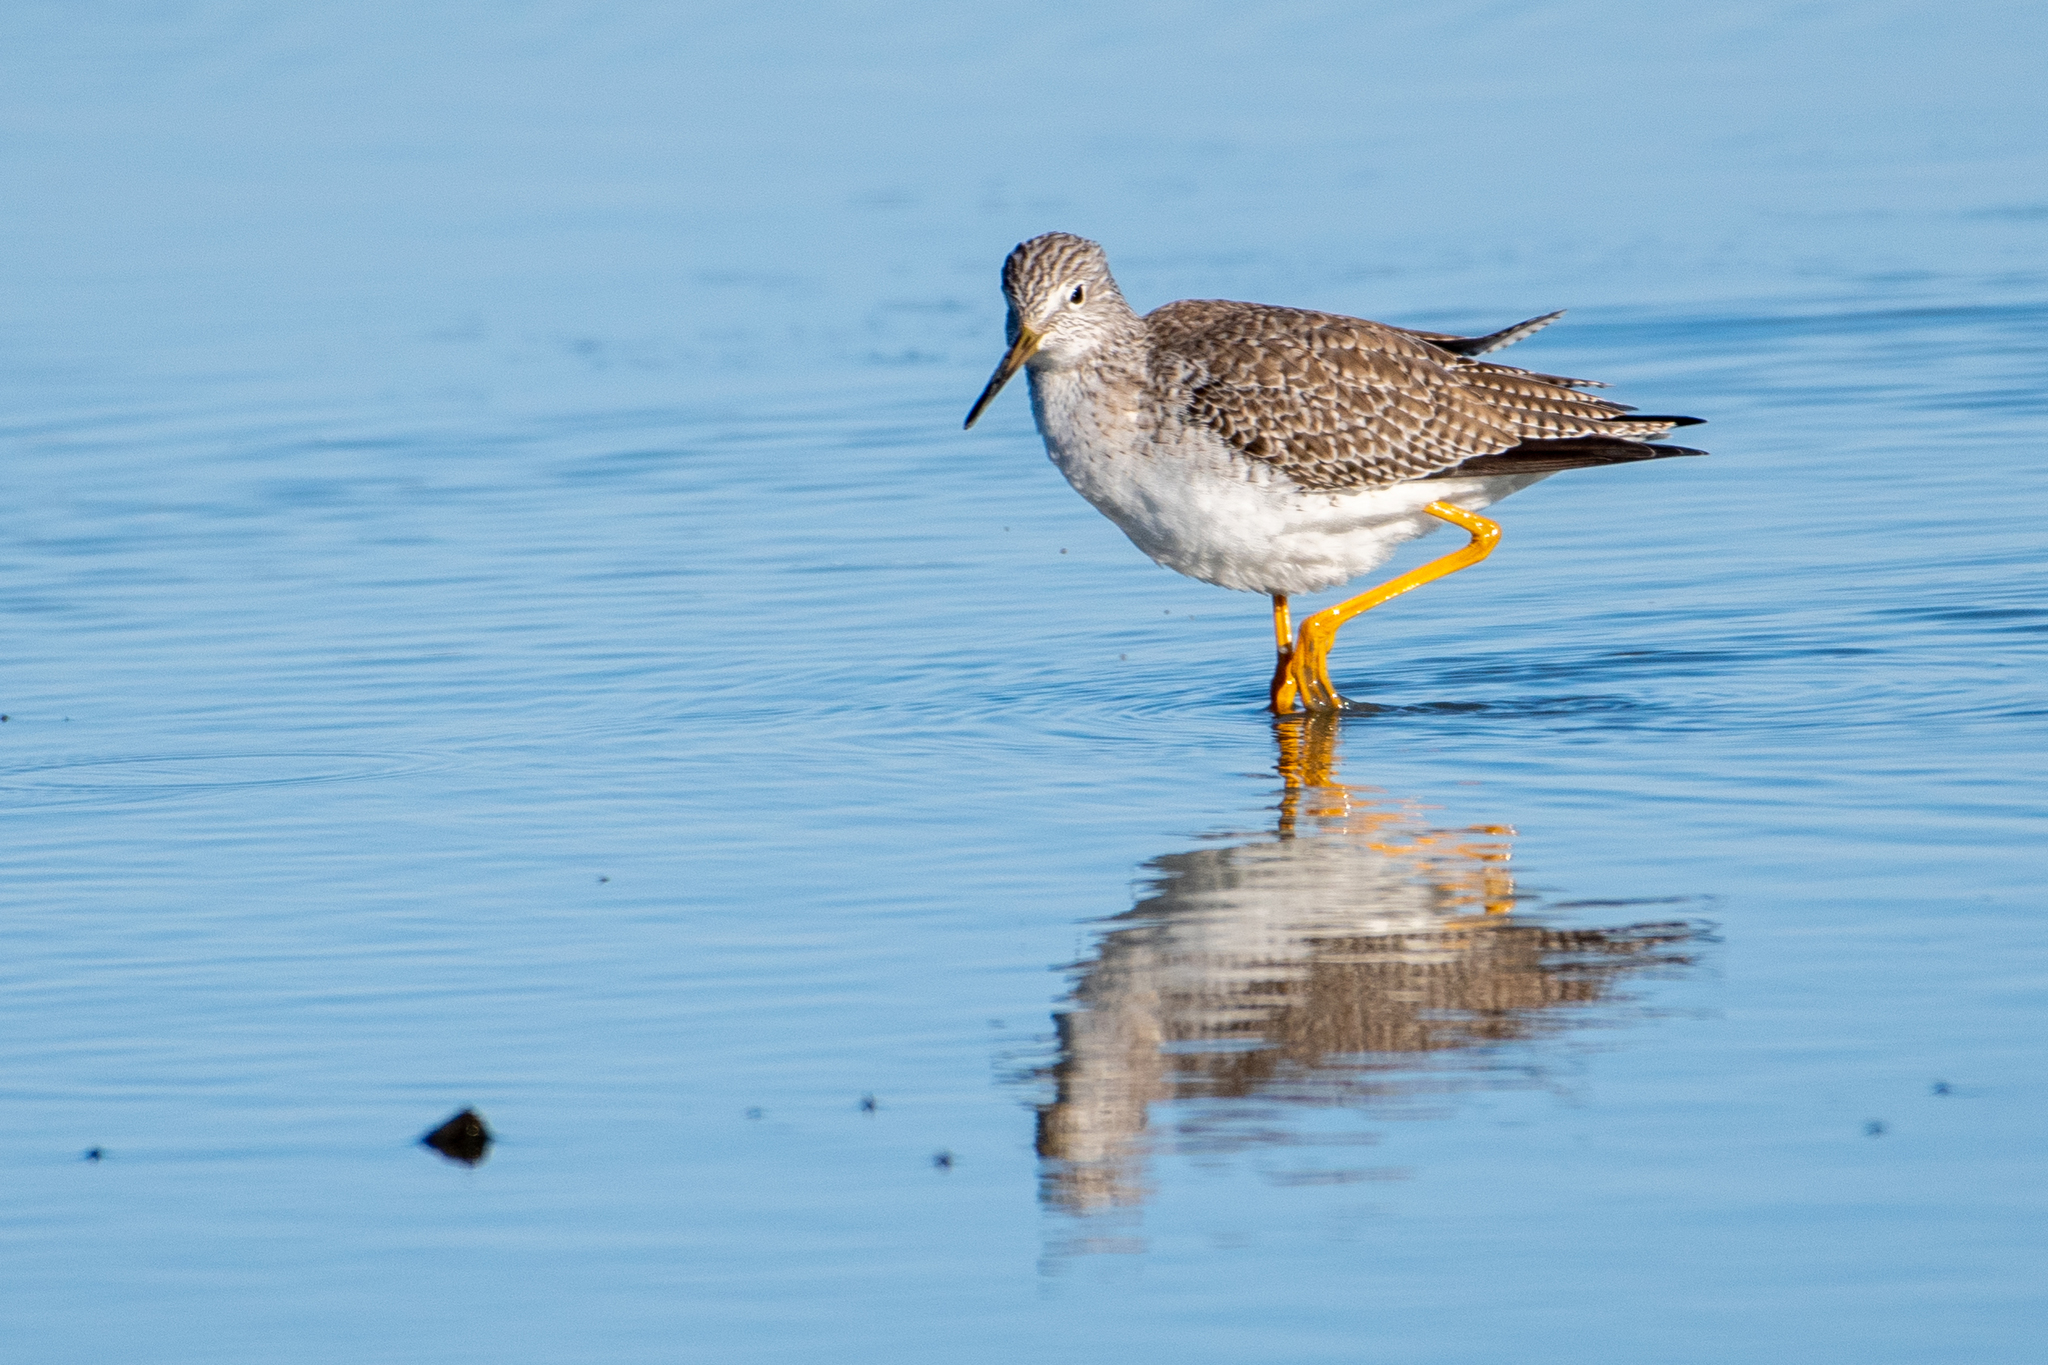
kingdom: Animalia
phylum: Chordata
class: Aves
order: Charadriiformes
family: Scolopacidae
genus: Tringa
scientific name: Tringa melanoleuca
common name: Greater yellowlegs
